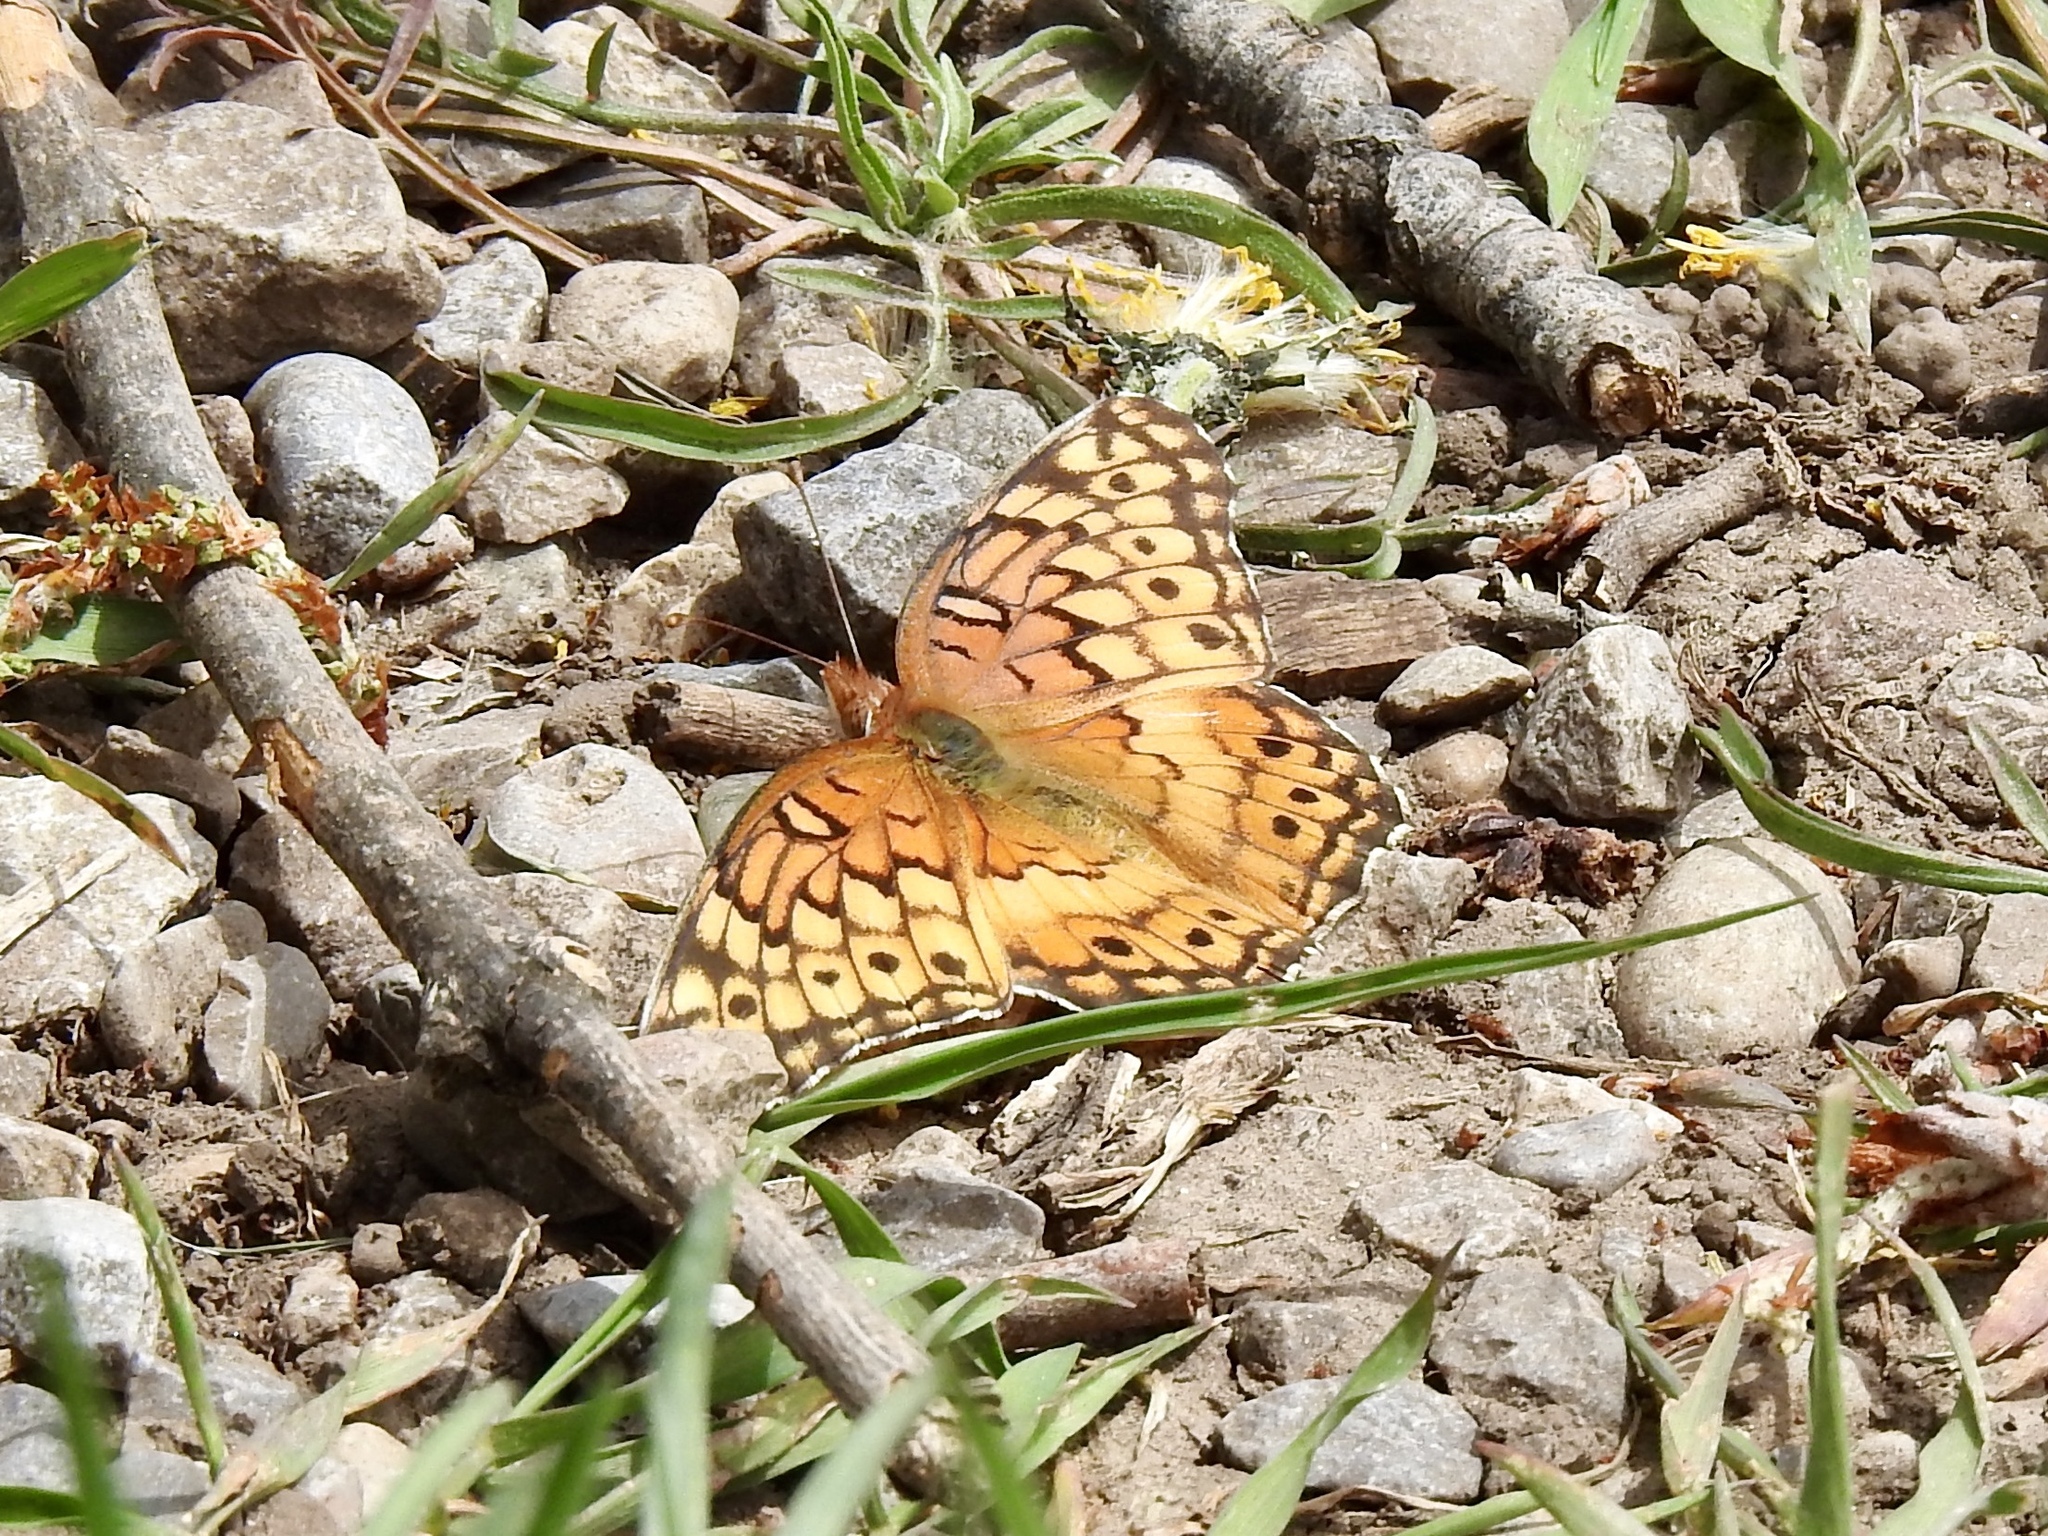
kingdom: Animalia
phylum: Arthropoda
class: Insecta
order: Lepidoptera
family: Nymphalidae
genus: Euptoieta
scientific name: Euptoieta claudia
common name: Variegated fritillary
